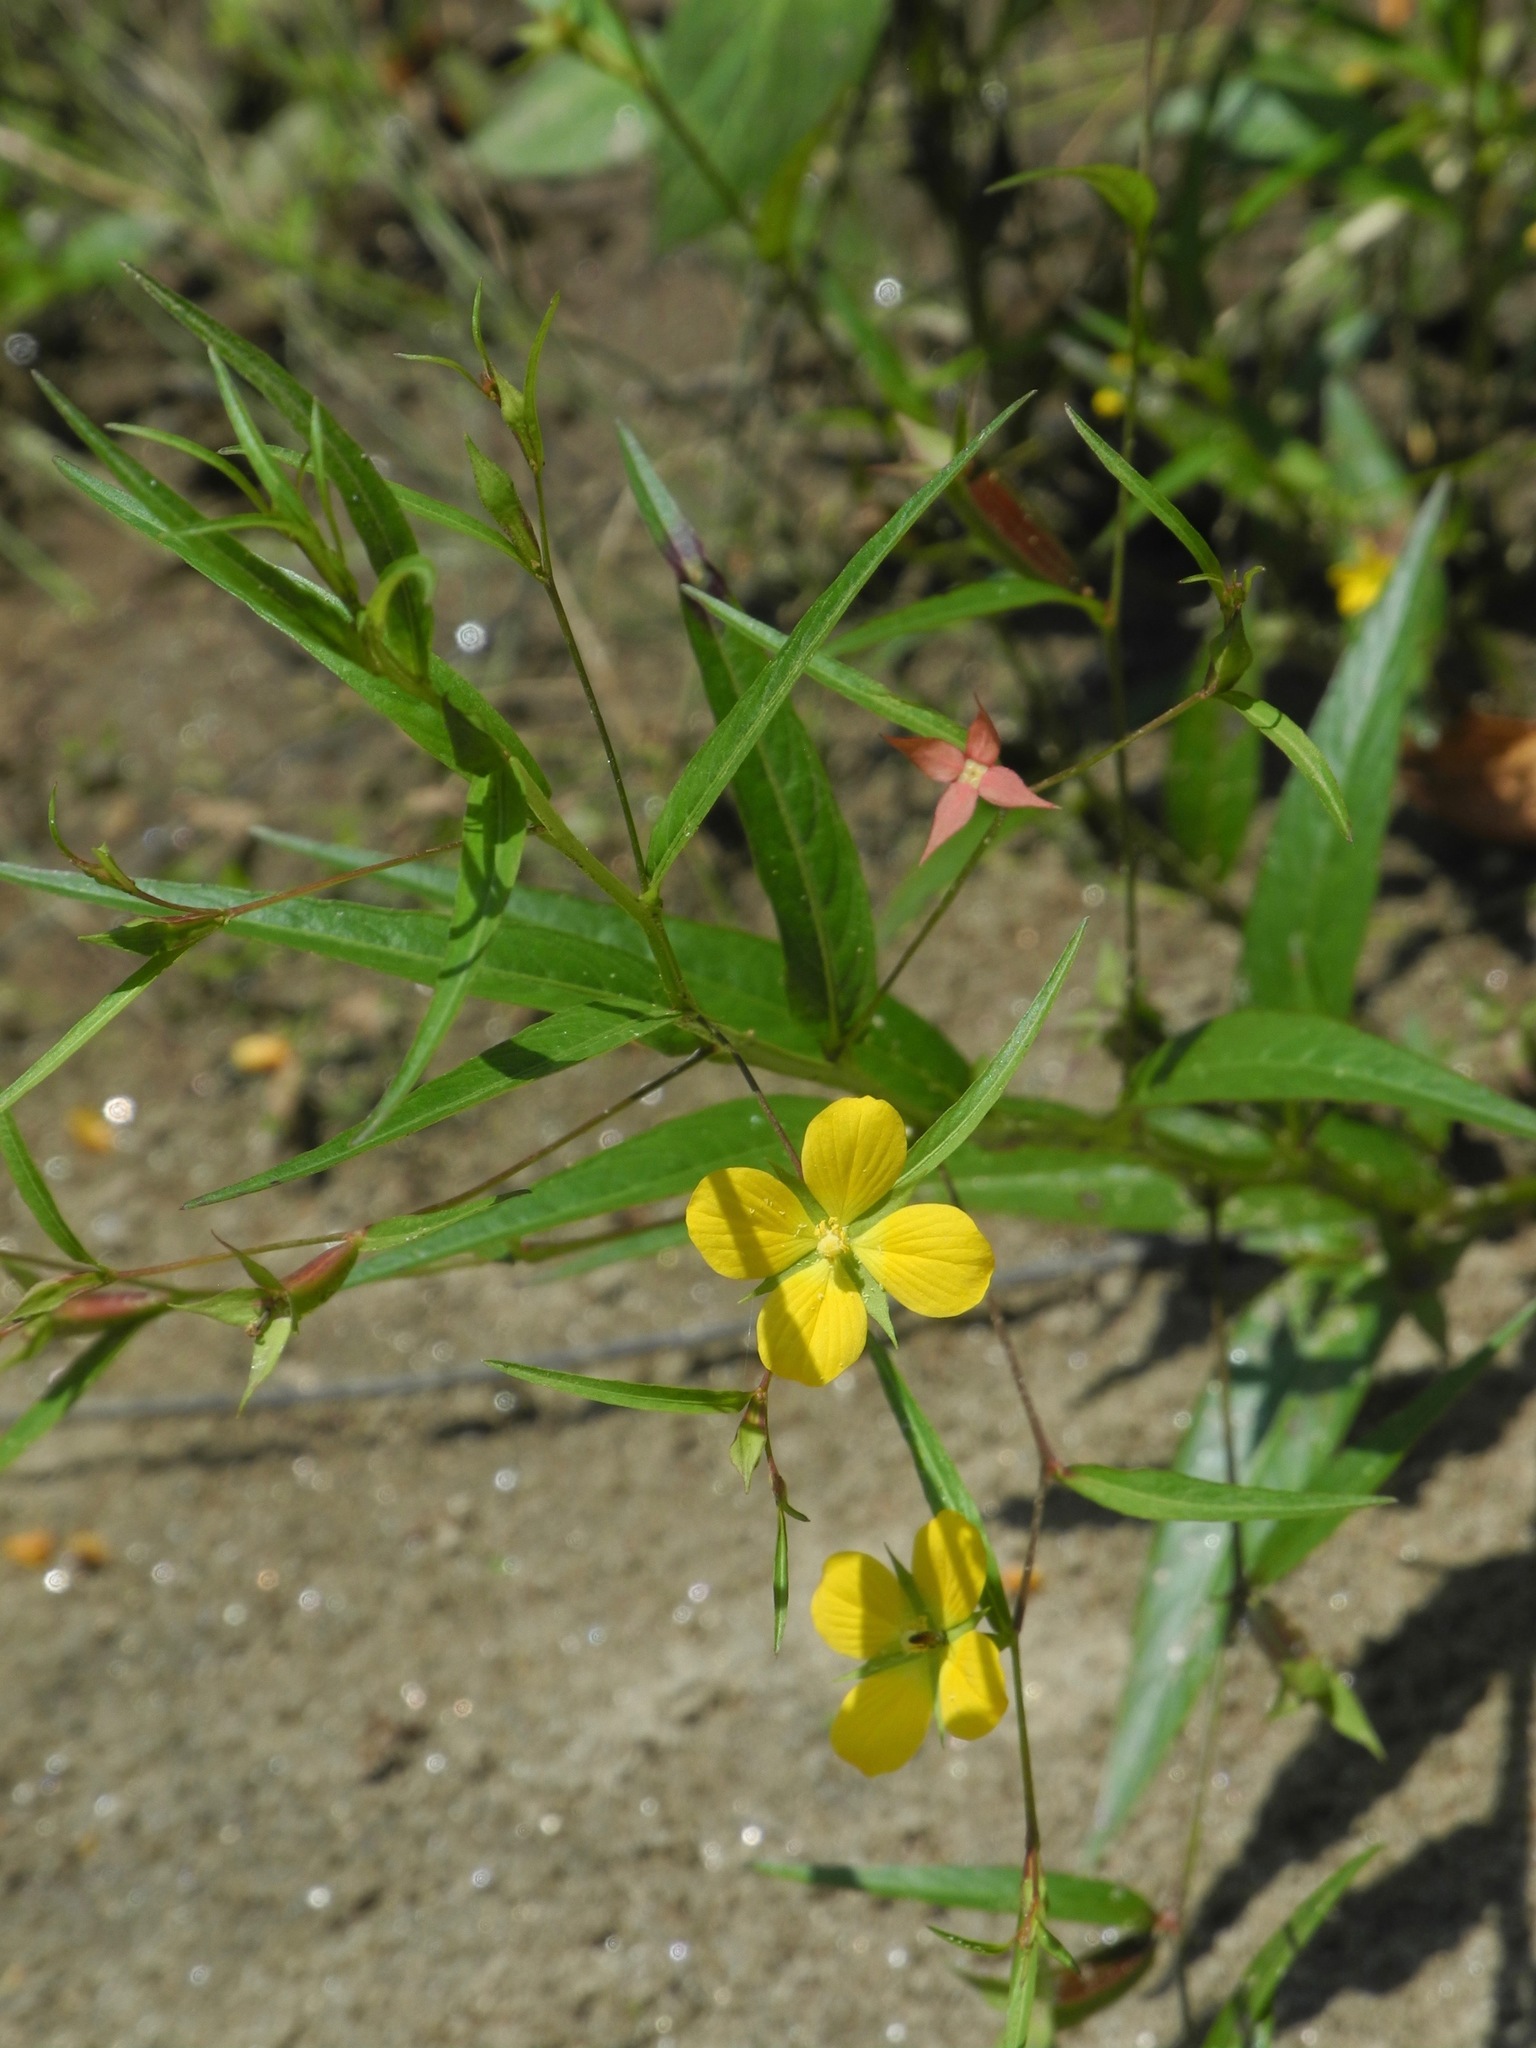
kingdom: Plantae
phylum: Tracheophyta
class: Magnoliopsida
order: Myrtales
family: Onagraceae
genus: Ludwigia
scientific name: Ludwigia alternifolia
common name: Rattlebox
